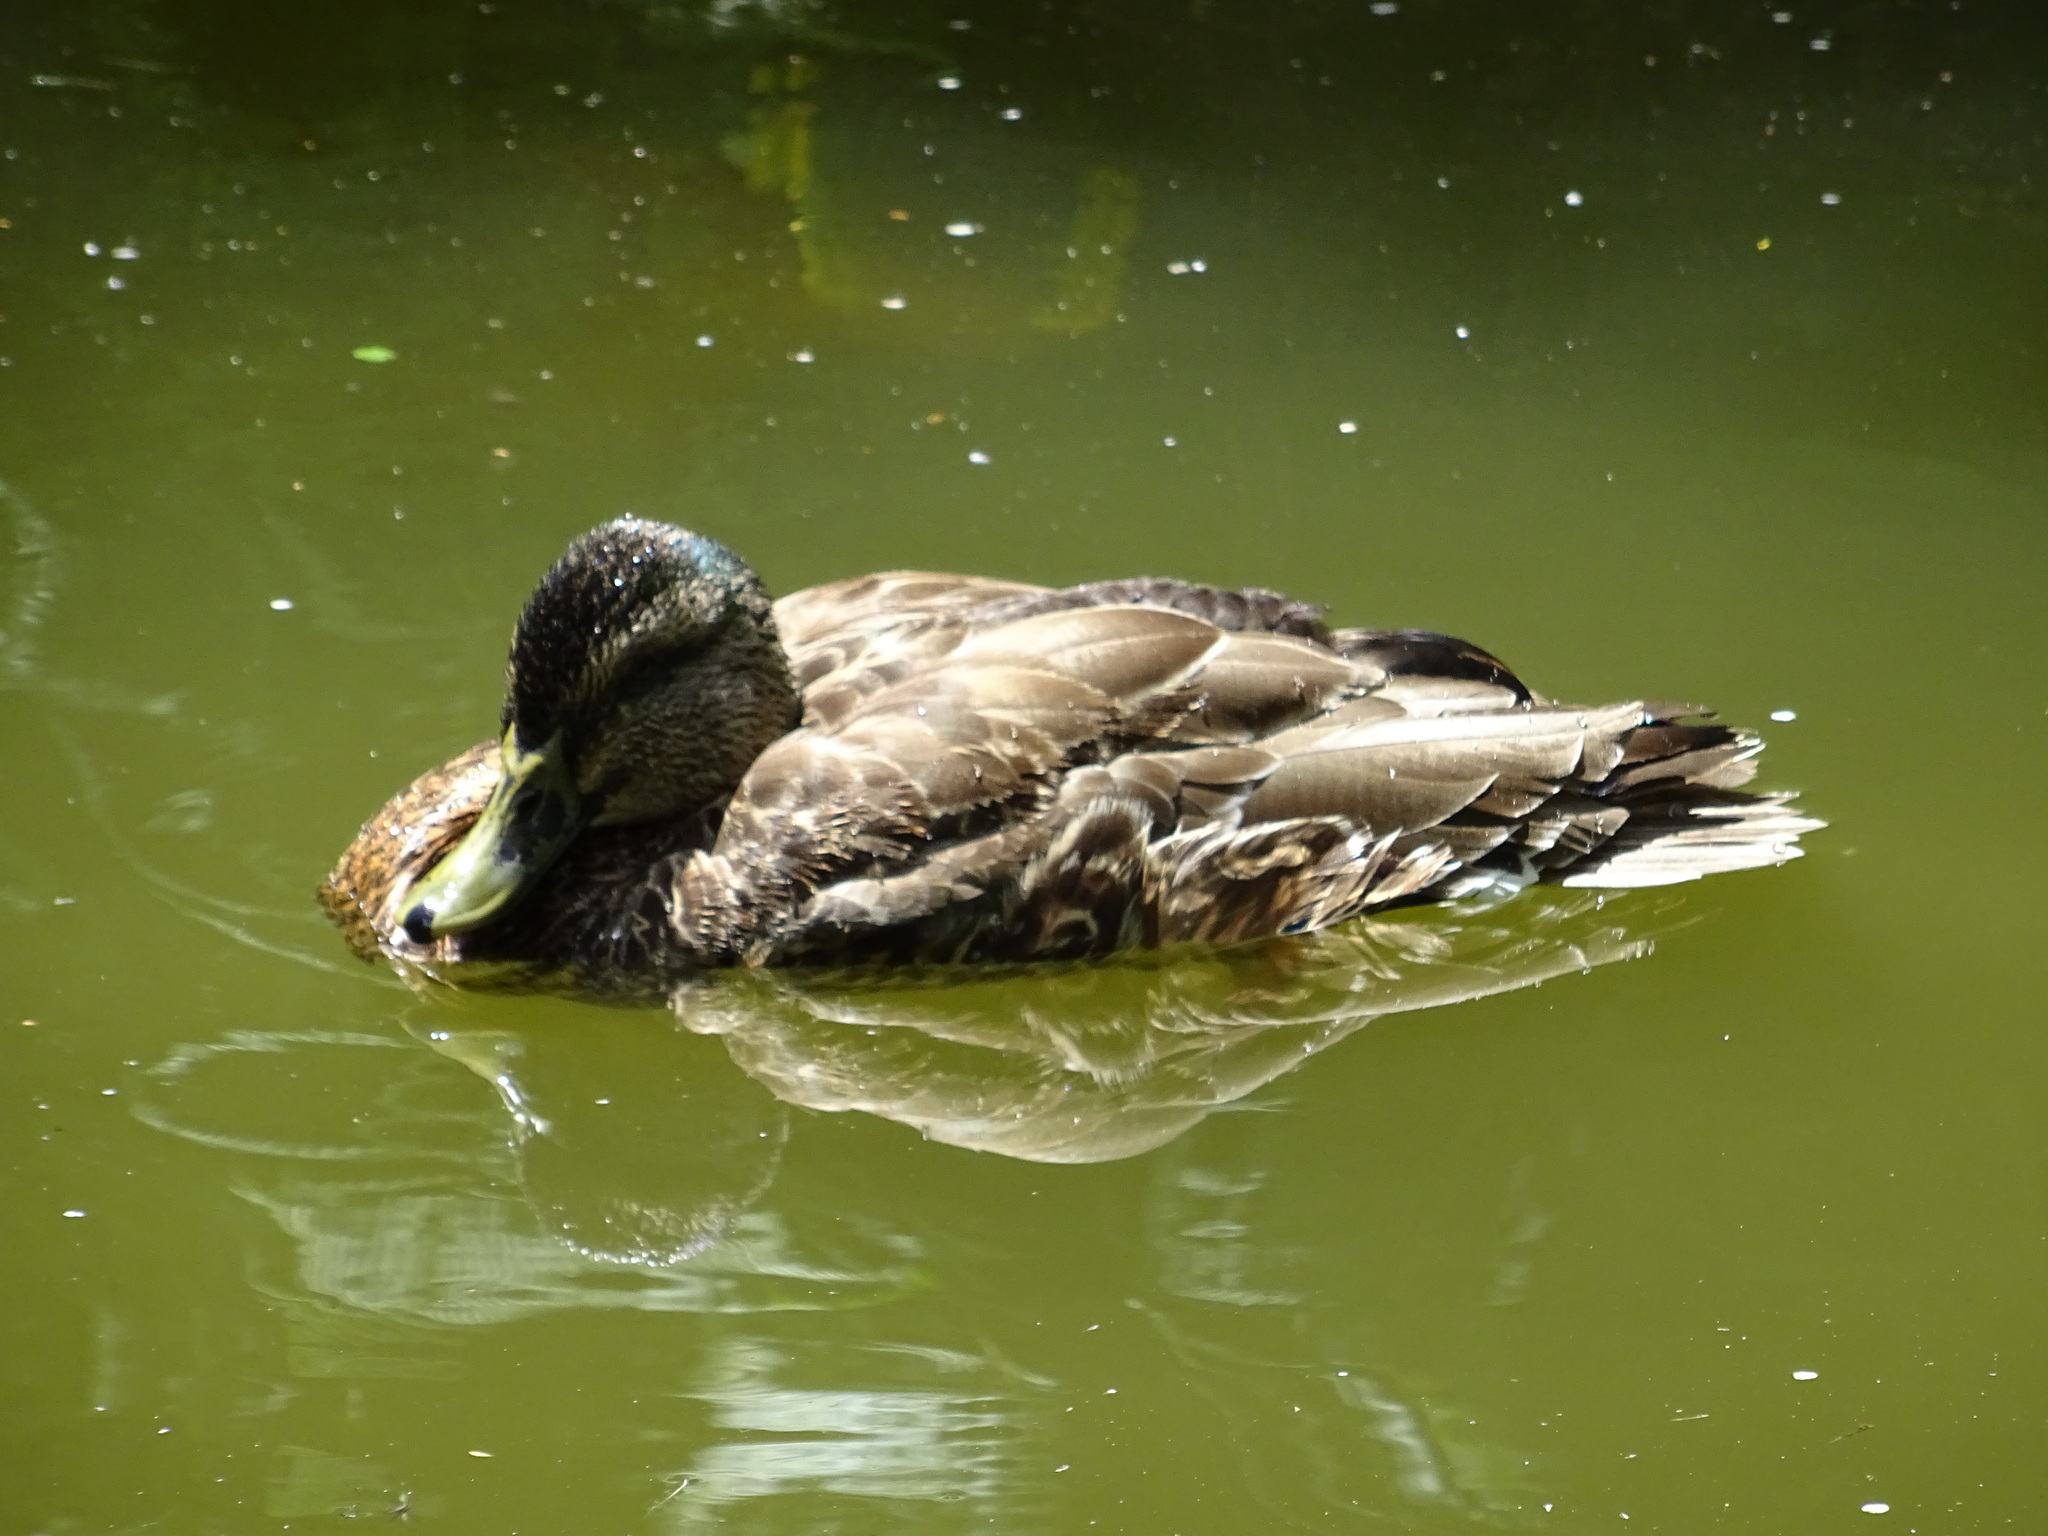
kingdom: Animalia
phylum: Chordata
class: Aves
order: Anseriformes
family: Anatidae
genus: Anas
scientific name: Anas
